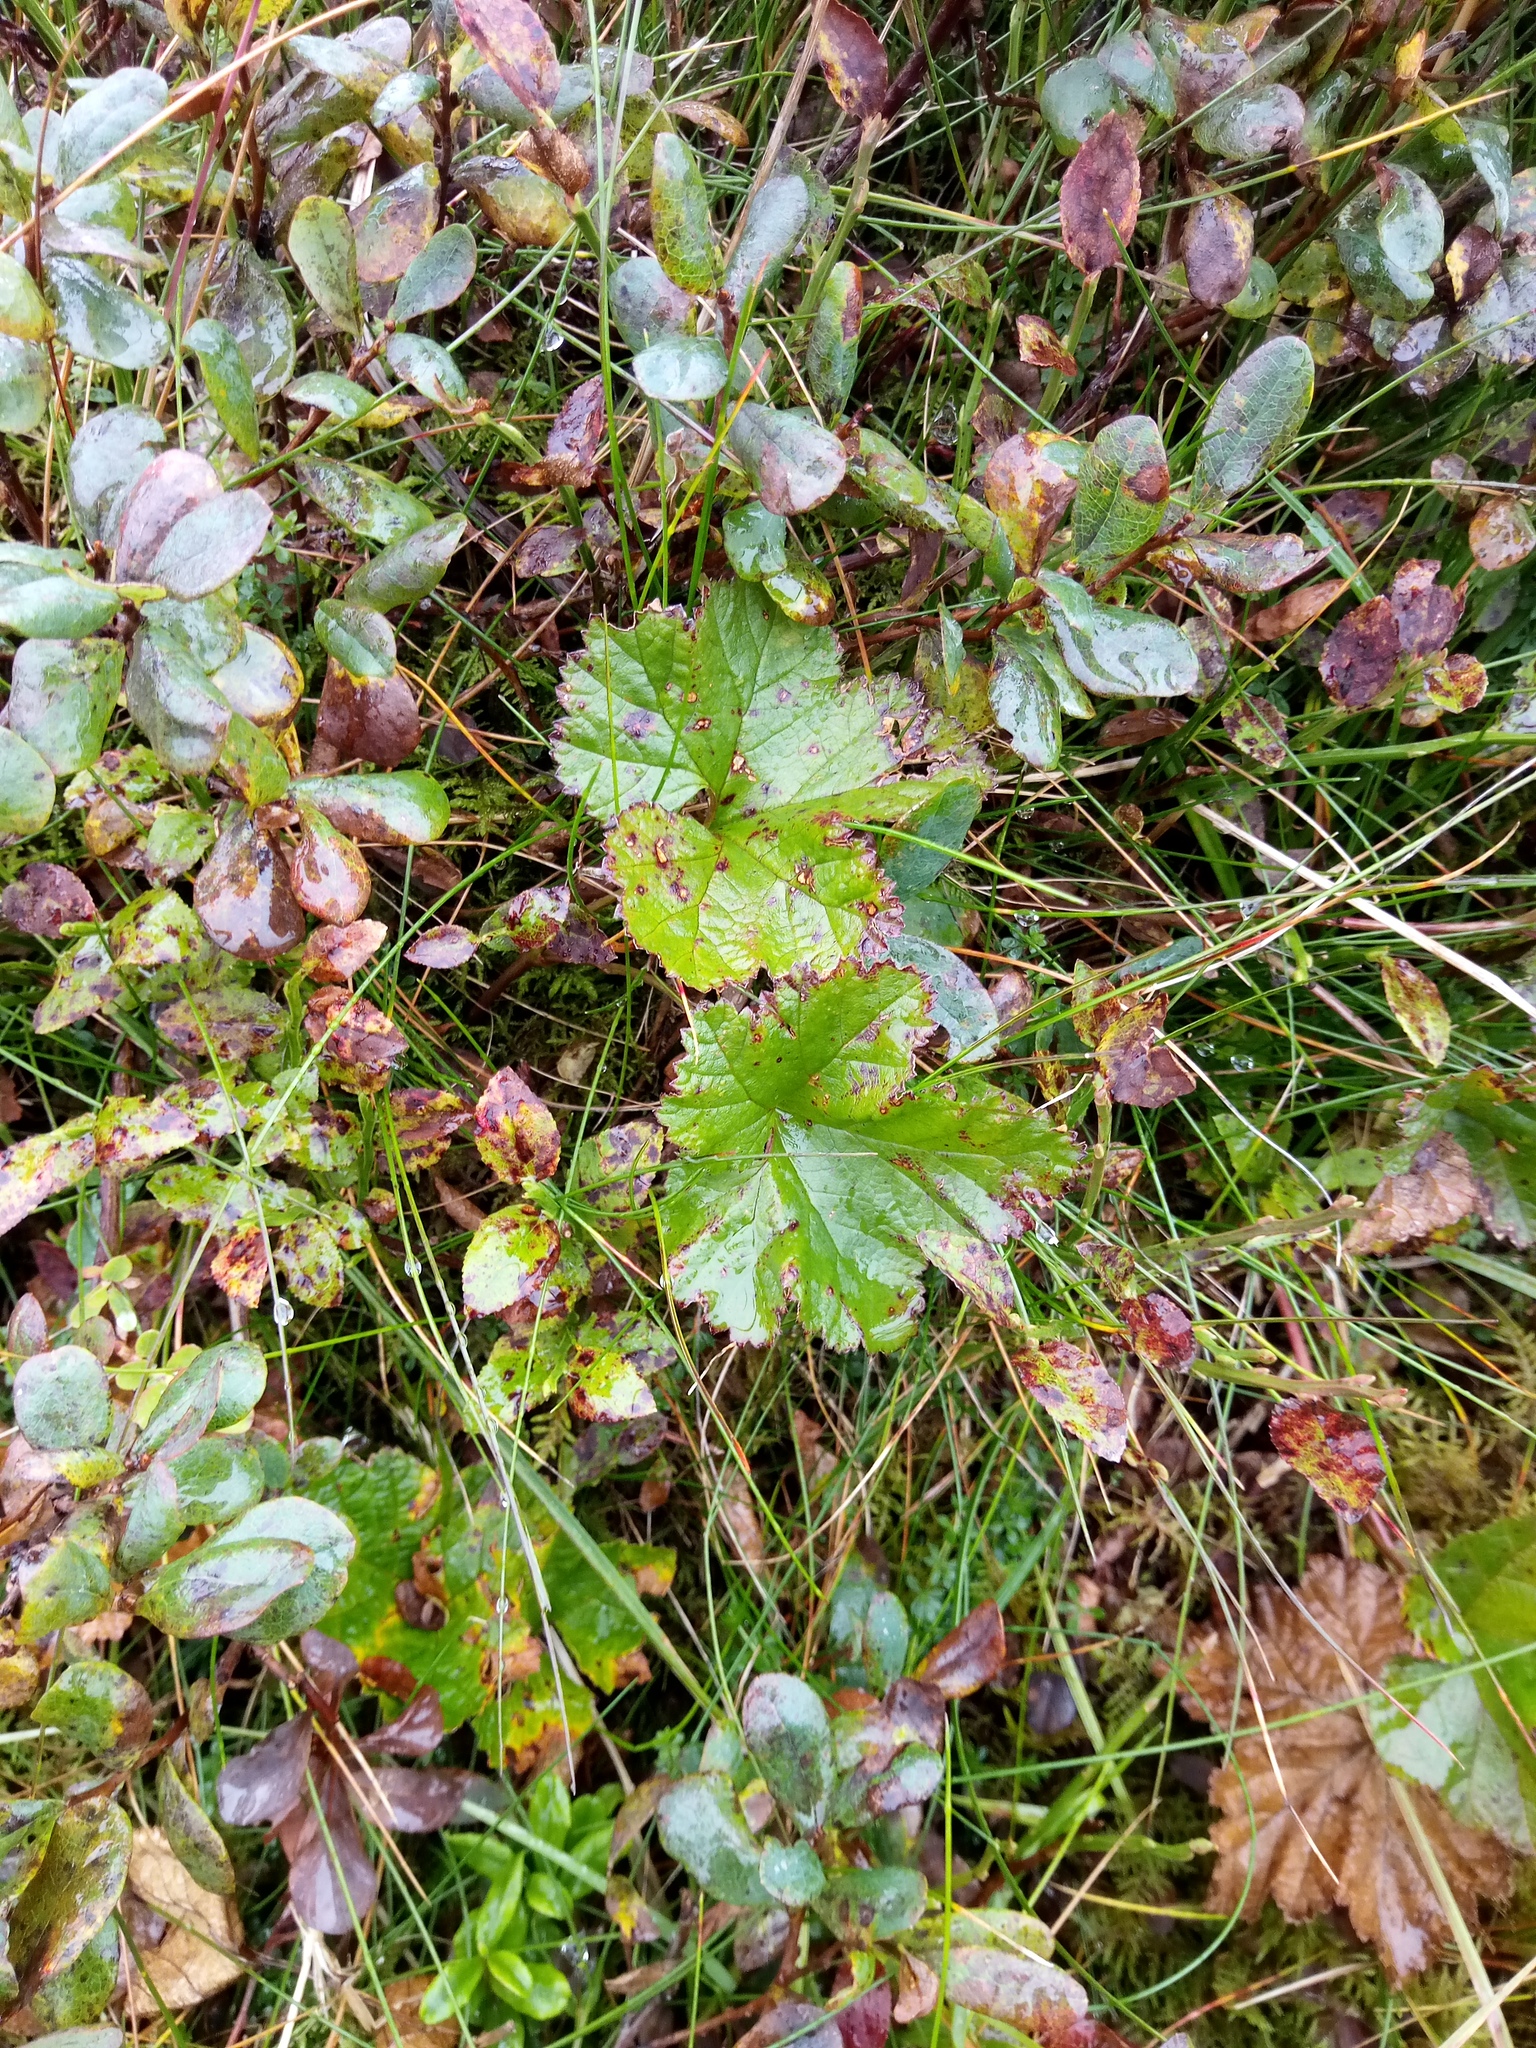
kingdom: Plantae
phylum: Tracheophyta
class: Magnoliopsida
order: Rosales
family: Rosaceae
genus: Rubus
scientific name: Rubus chamaemorus
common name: Cloudberry
